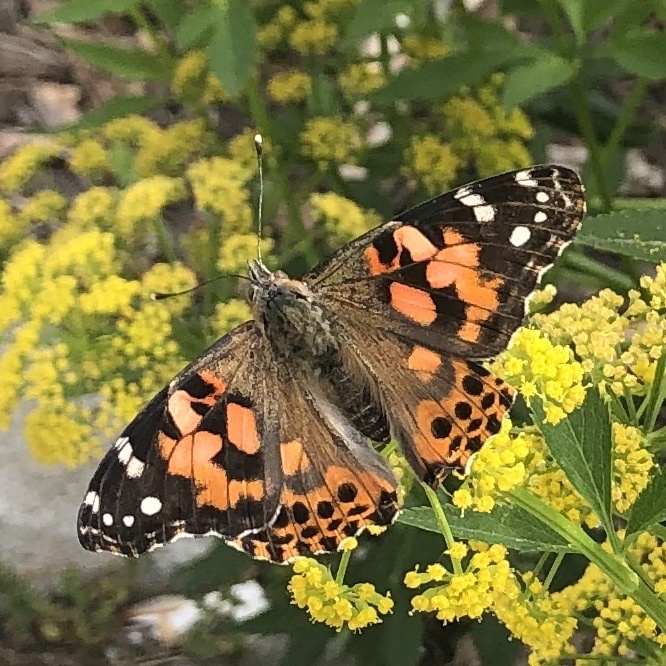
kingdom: Animalia
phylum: Arthropoda
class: Insecta
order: Lepidoptera
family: Nymphalidae
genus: Vanessa
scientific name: Vanessa cardui
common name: Painted lady
